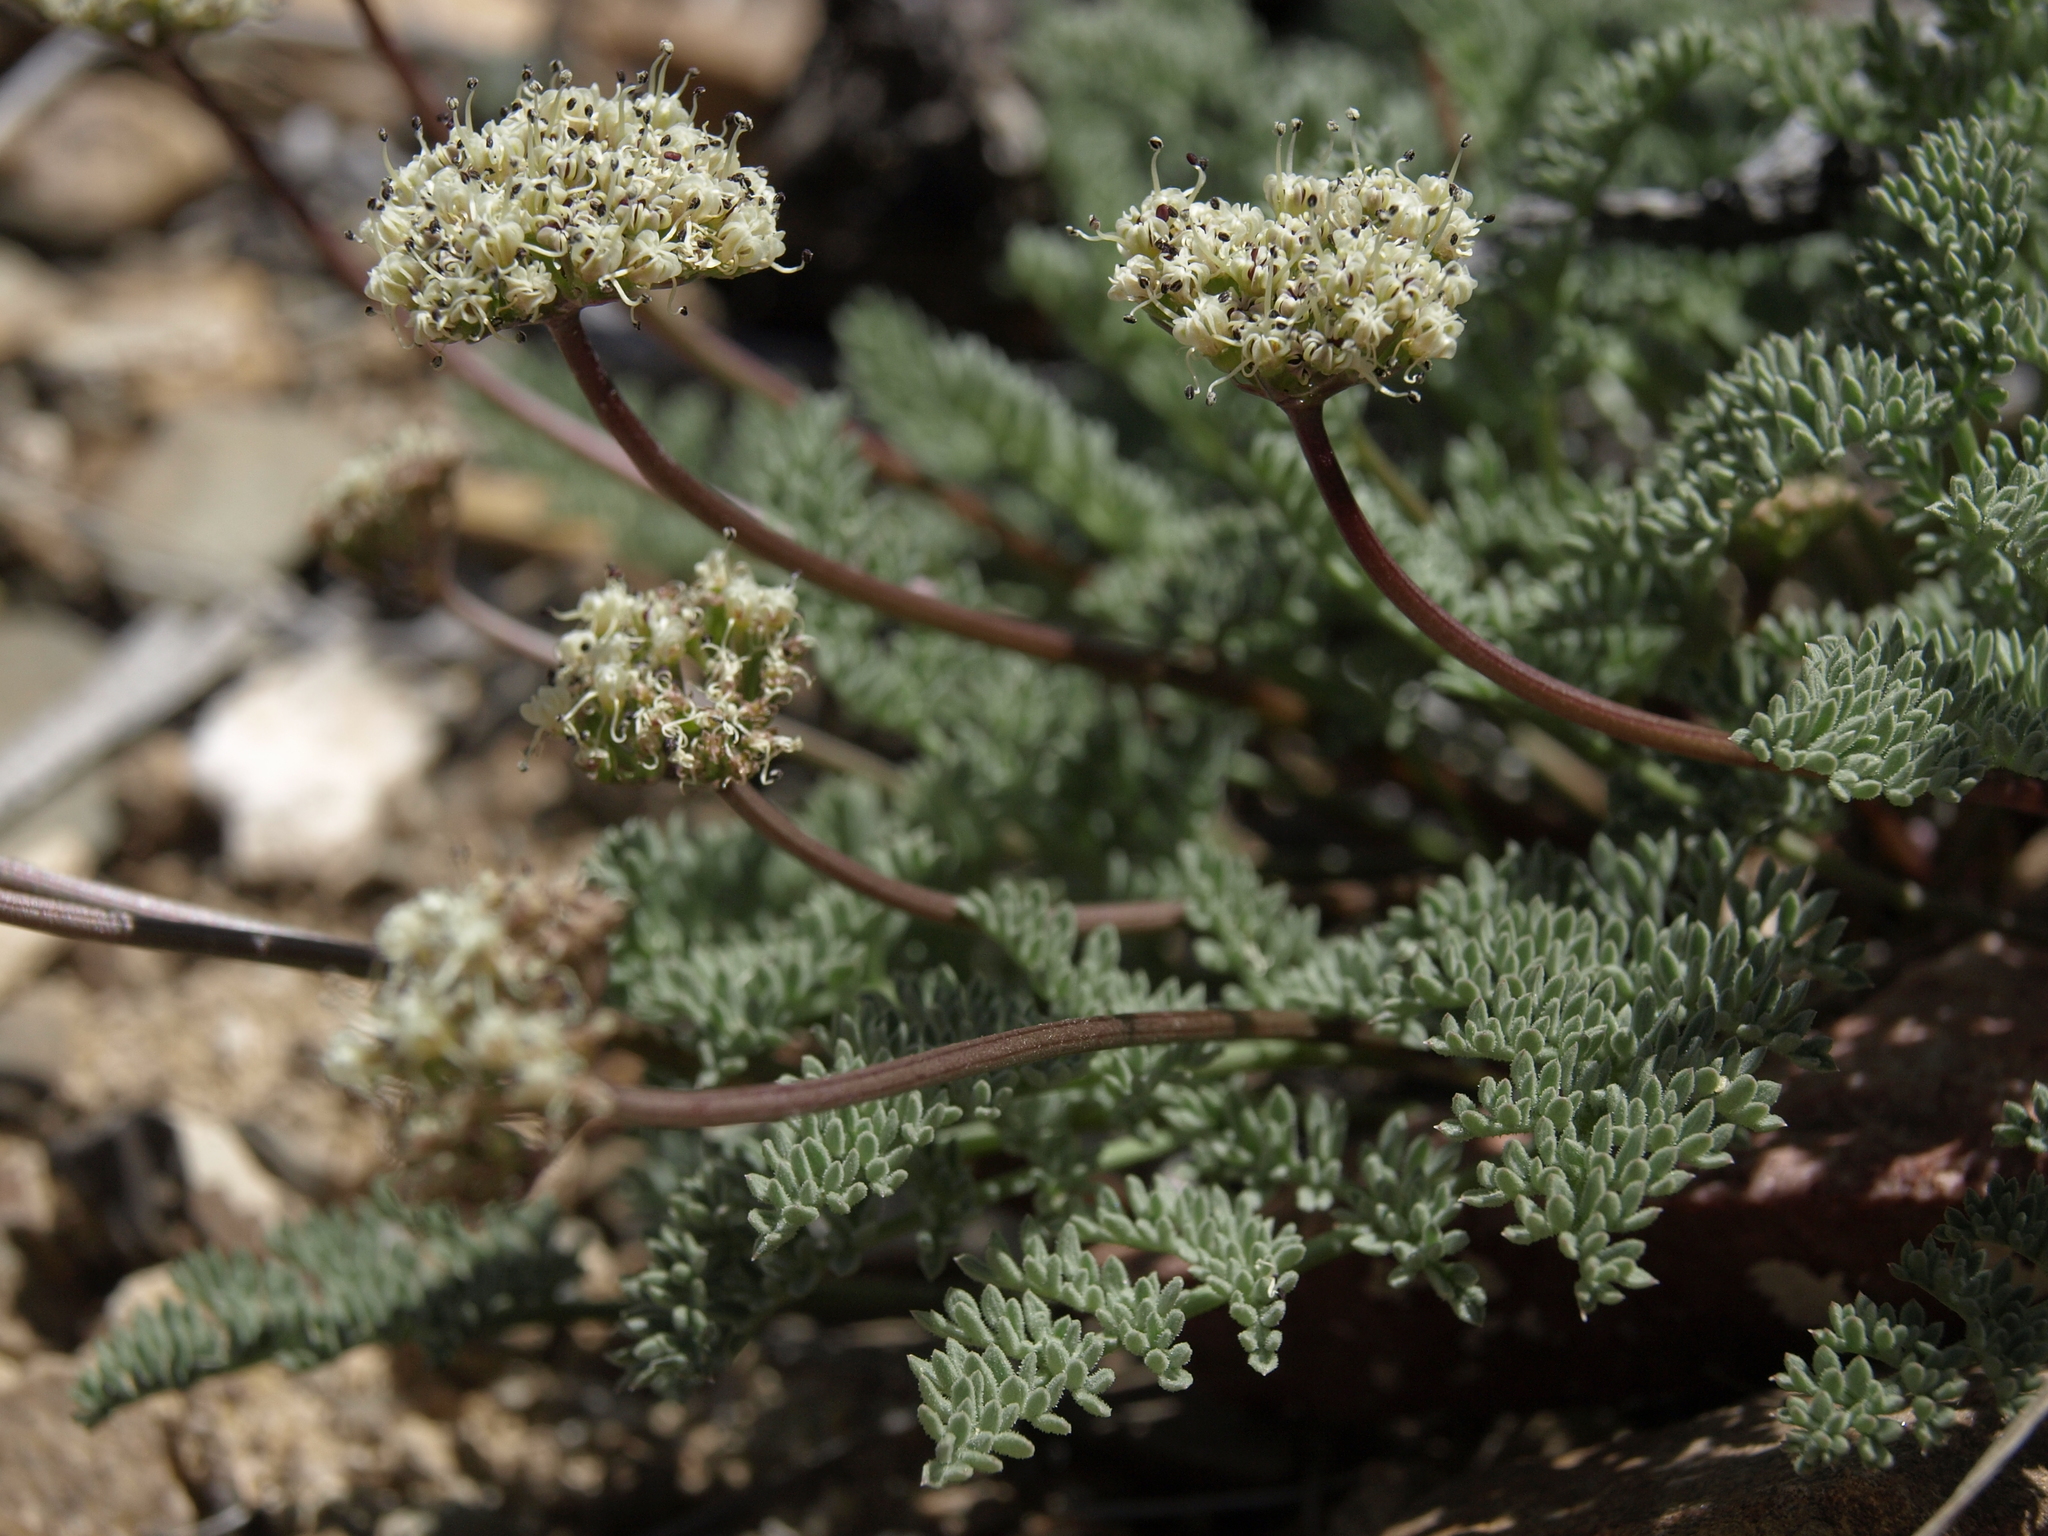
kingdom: Plantae
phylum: Tracheophyta
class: Magnoliopsida
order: Apiales
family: Apiaceae
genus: Aulospermum
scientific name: Aulospermum aboriginum
